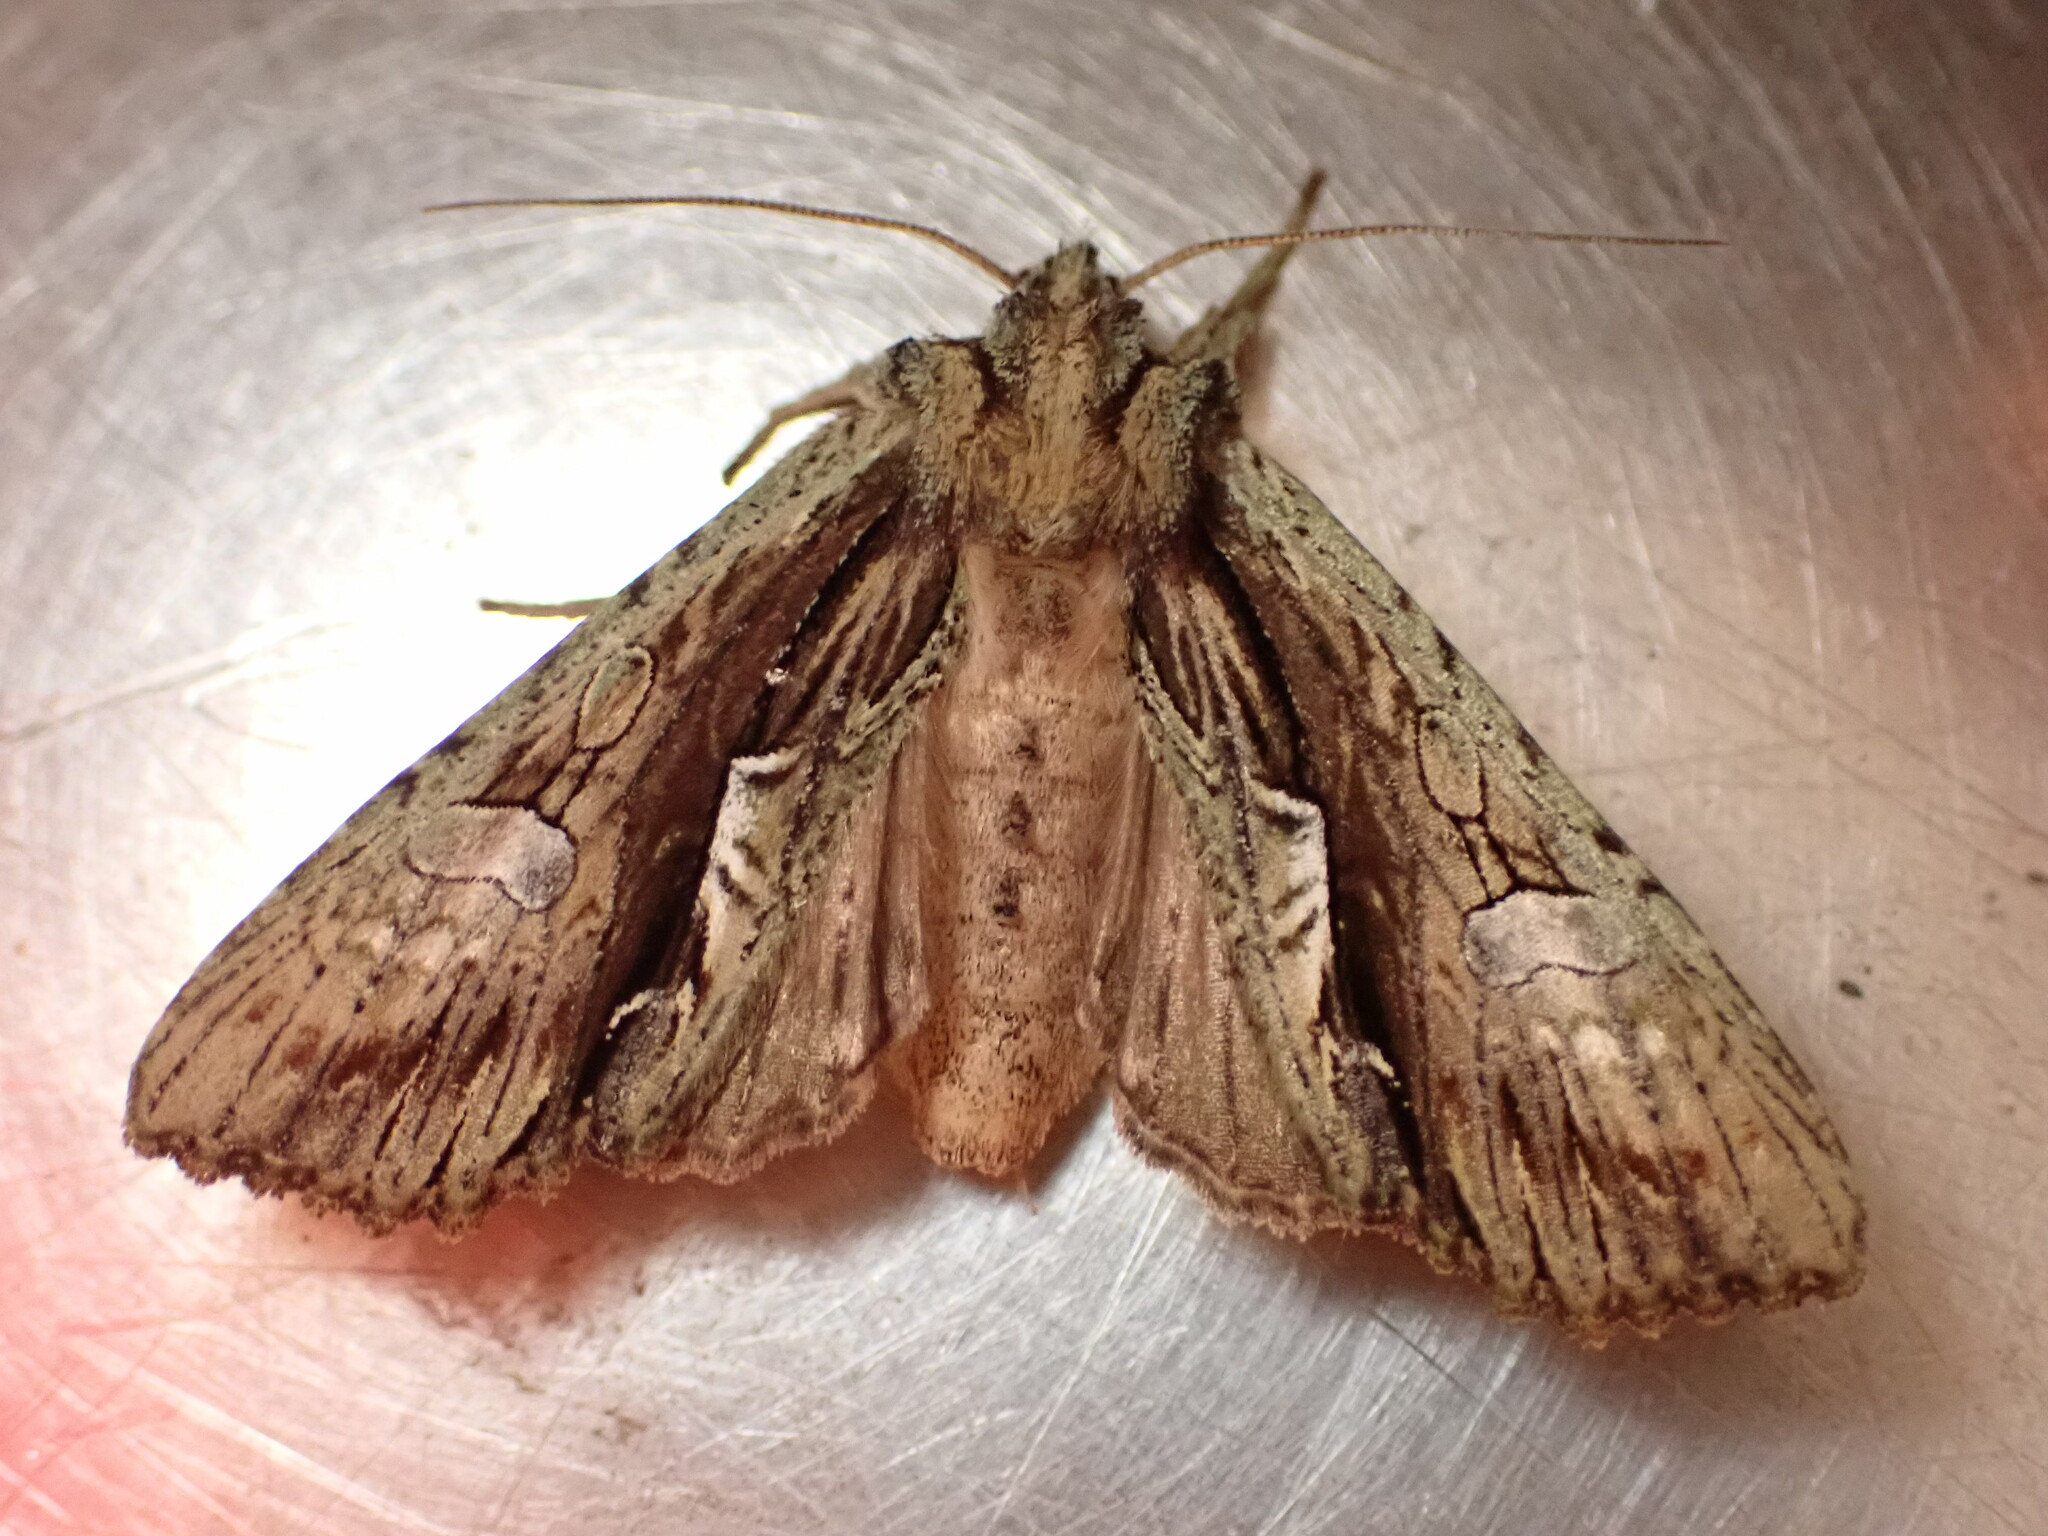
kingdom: Animalia
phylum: Arthropoda
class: Insecta
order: Lepidoptera
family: Noctuidae
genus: Meterana
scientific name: Meterana decorata
